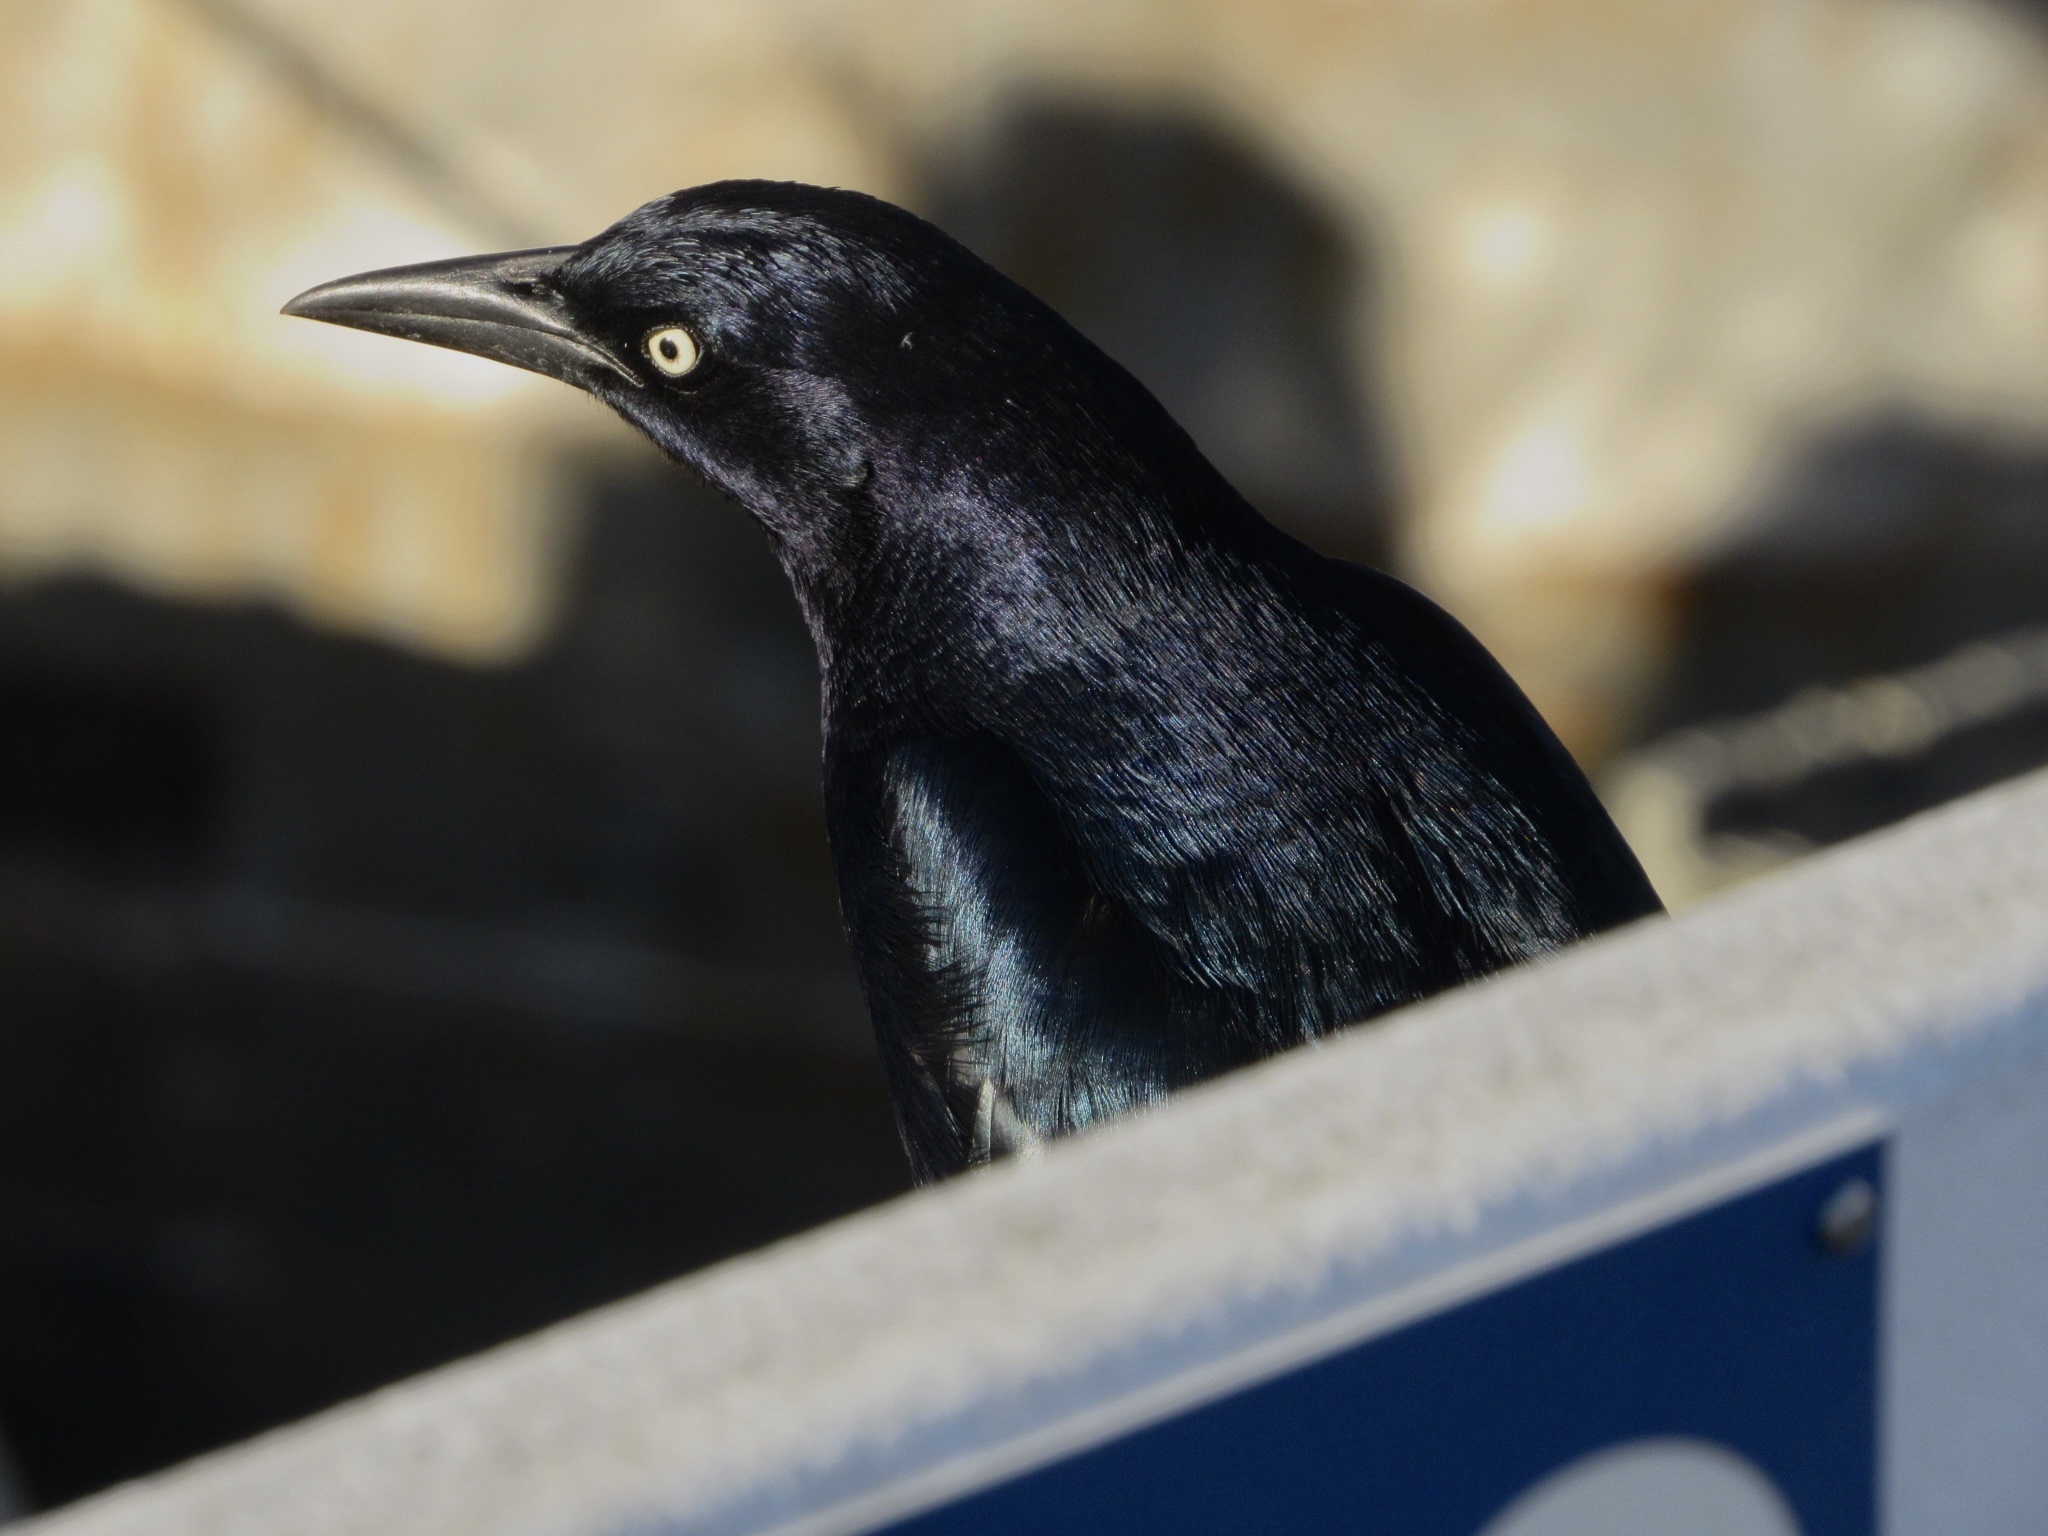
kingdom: Animalia
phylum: Chordata
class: Aves
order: Passeriformes
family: Icteridae
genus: Quiscalus
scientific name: Quiscalus mexicanus
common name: Great-tailed grackle
